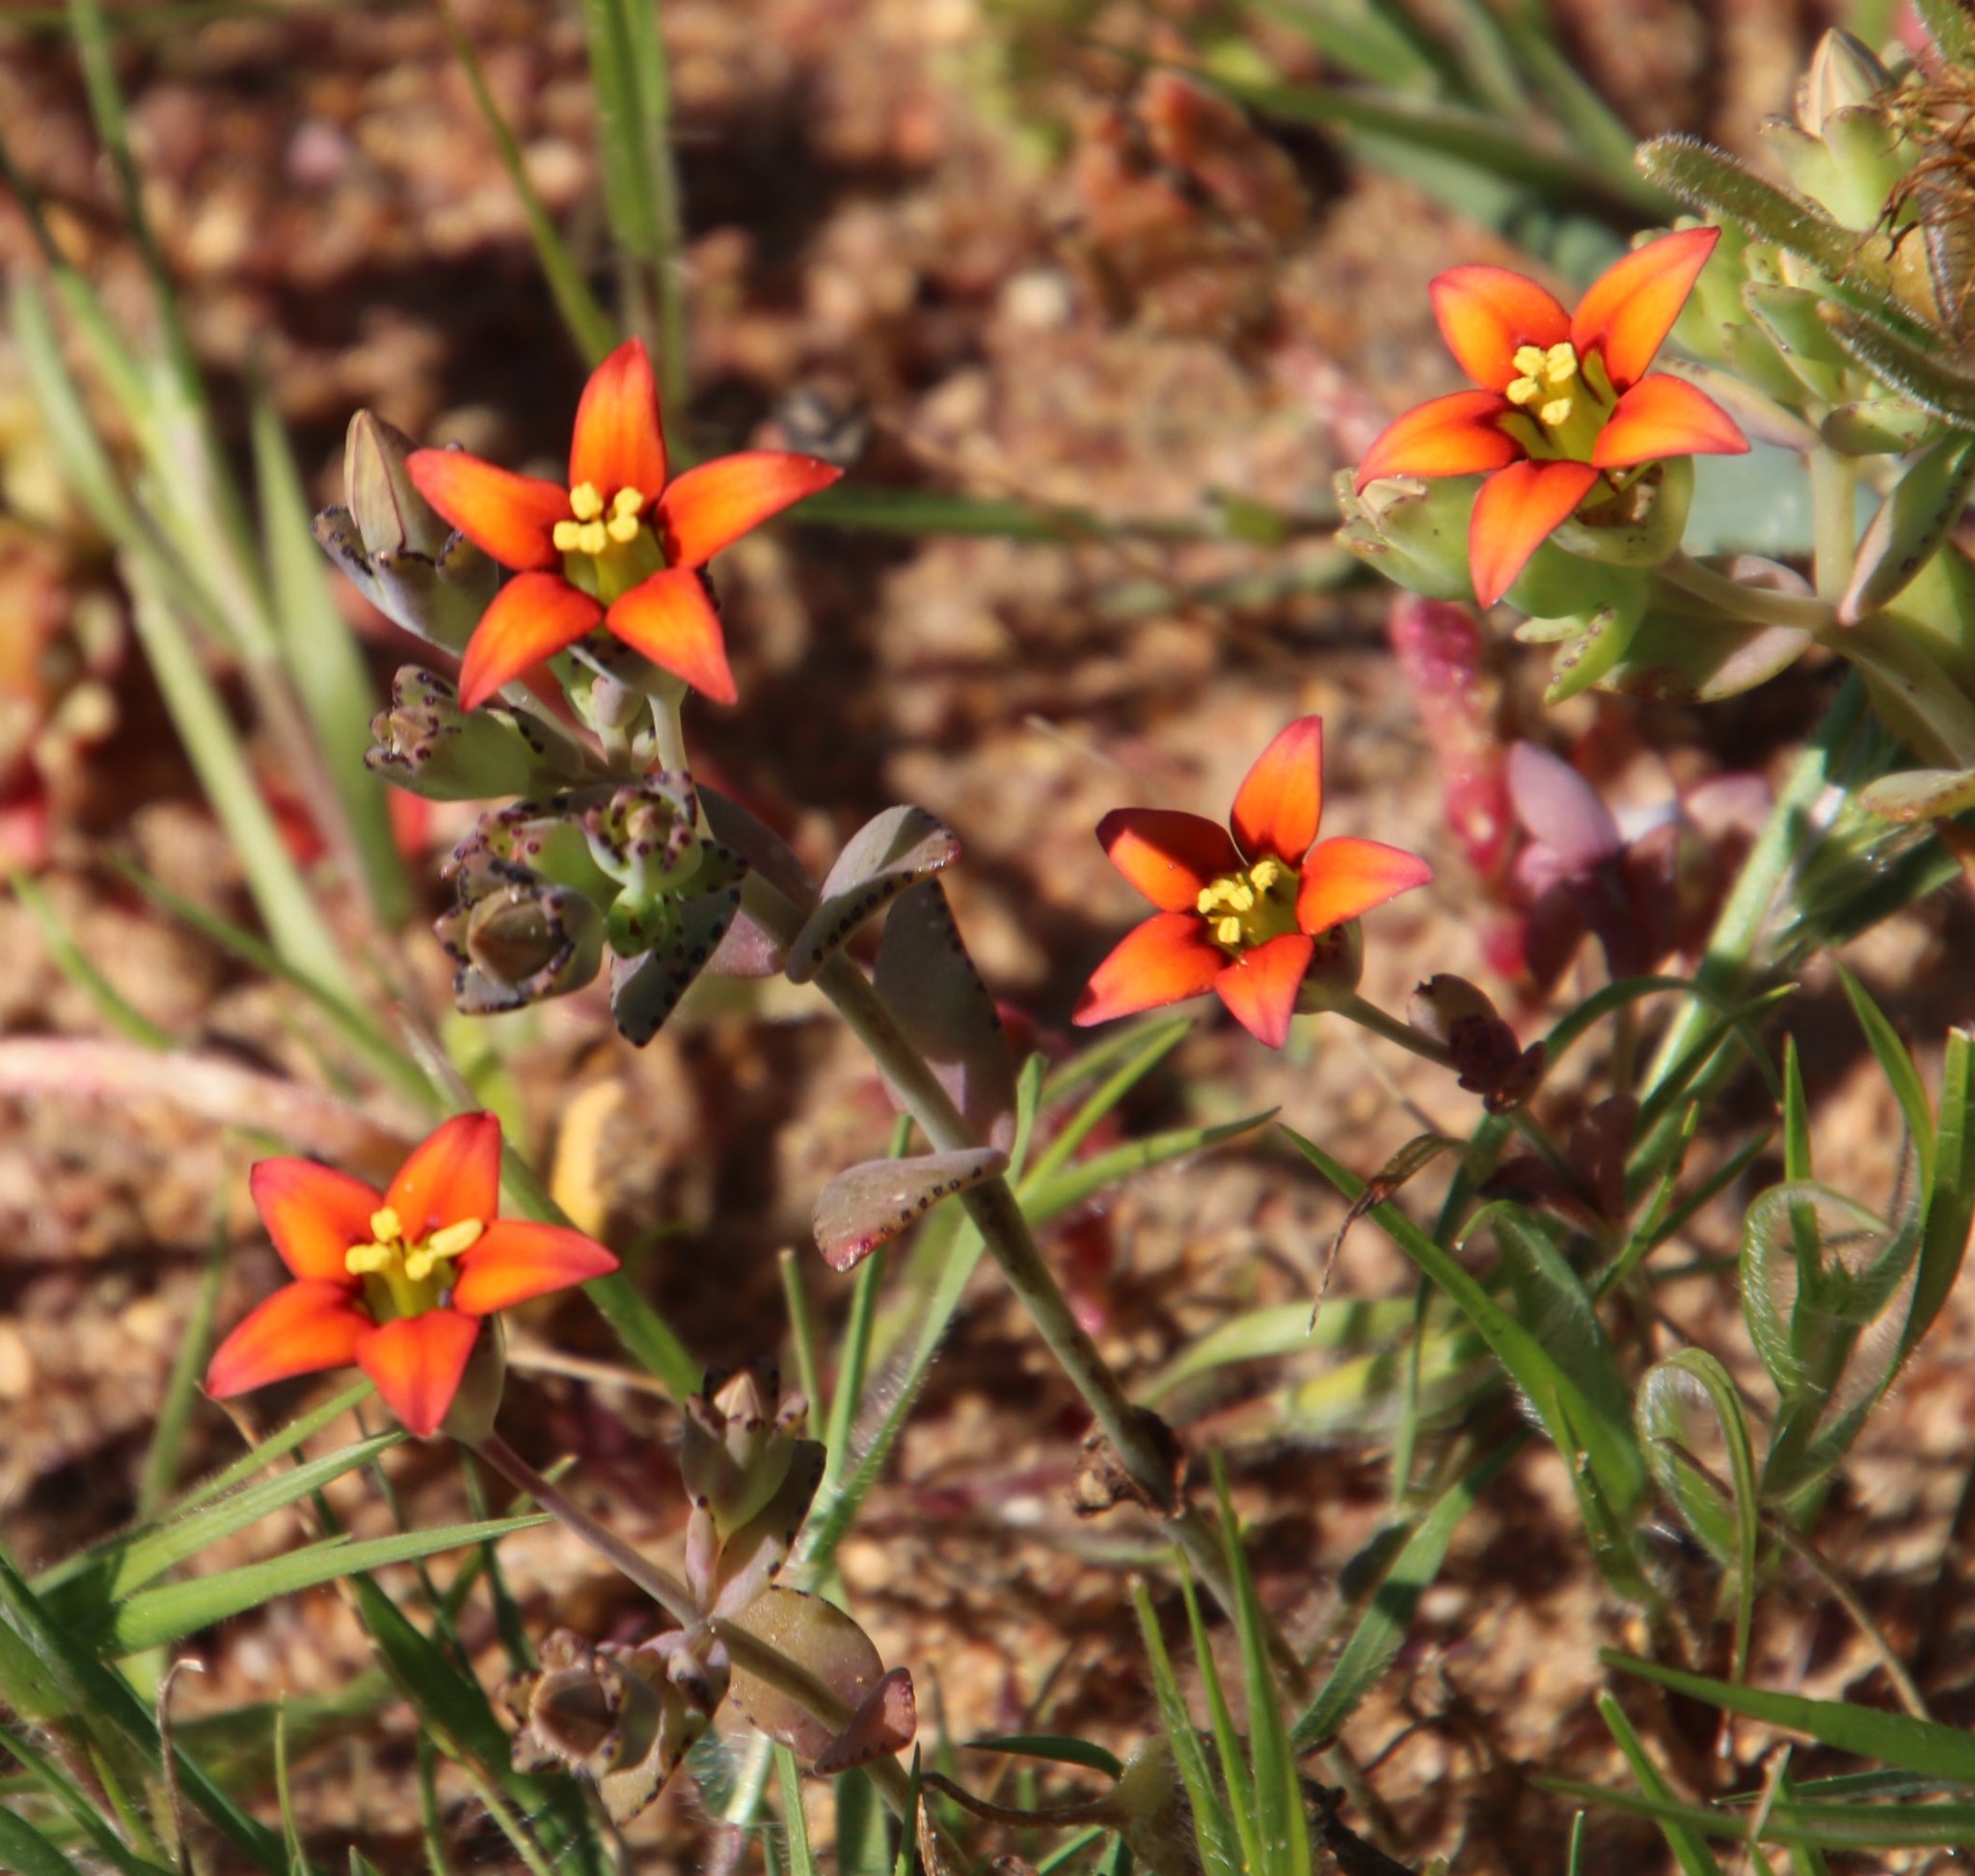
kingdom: Plantae
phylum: Tracheophyta
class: Magnoliopsida
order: Saxifragales
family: Crassulaceae
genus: Crassula
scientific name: Crassula dichotoma
